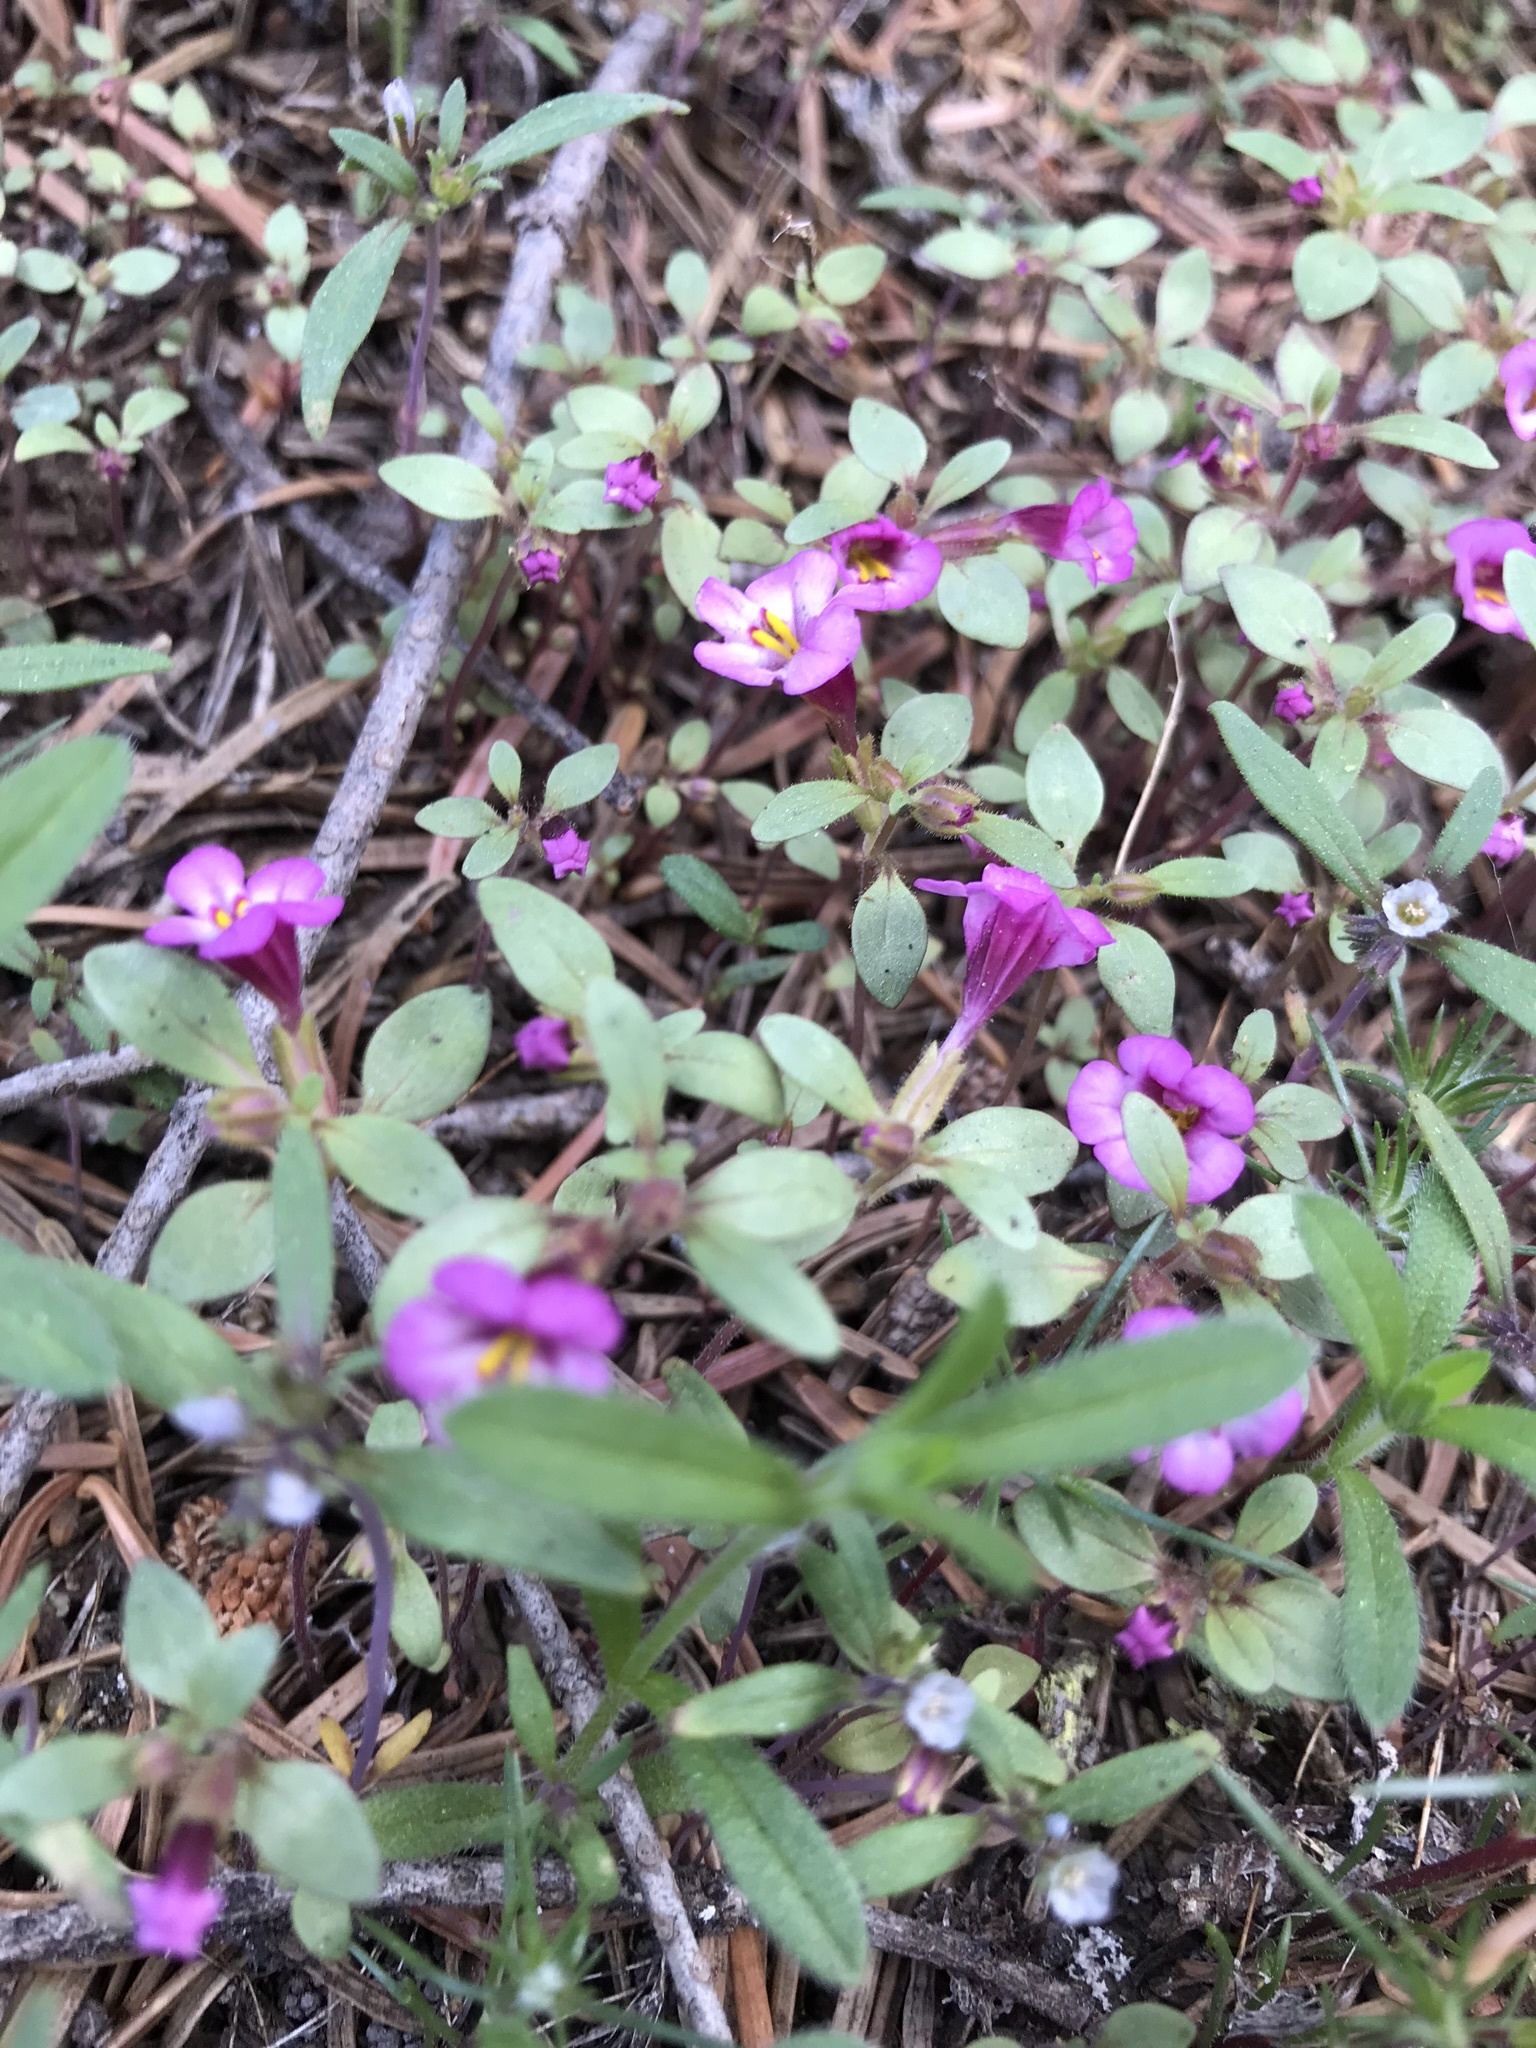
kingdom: Plantae
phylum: Tracheophyta
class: Magnoliopsida
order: Lamiales
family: Phrymaceae
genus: Diplacus
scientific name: Diplacus torreyi
